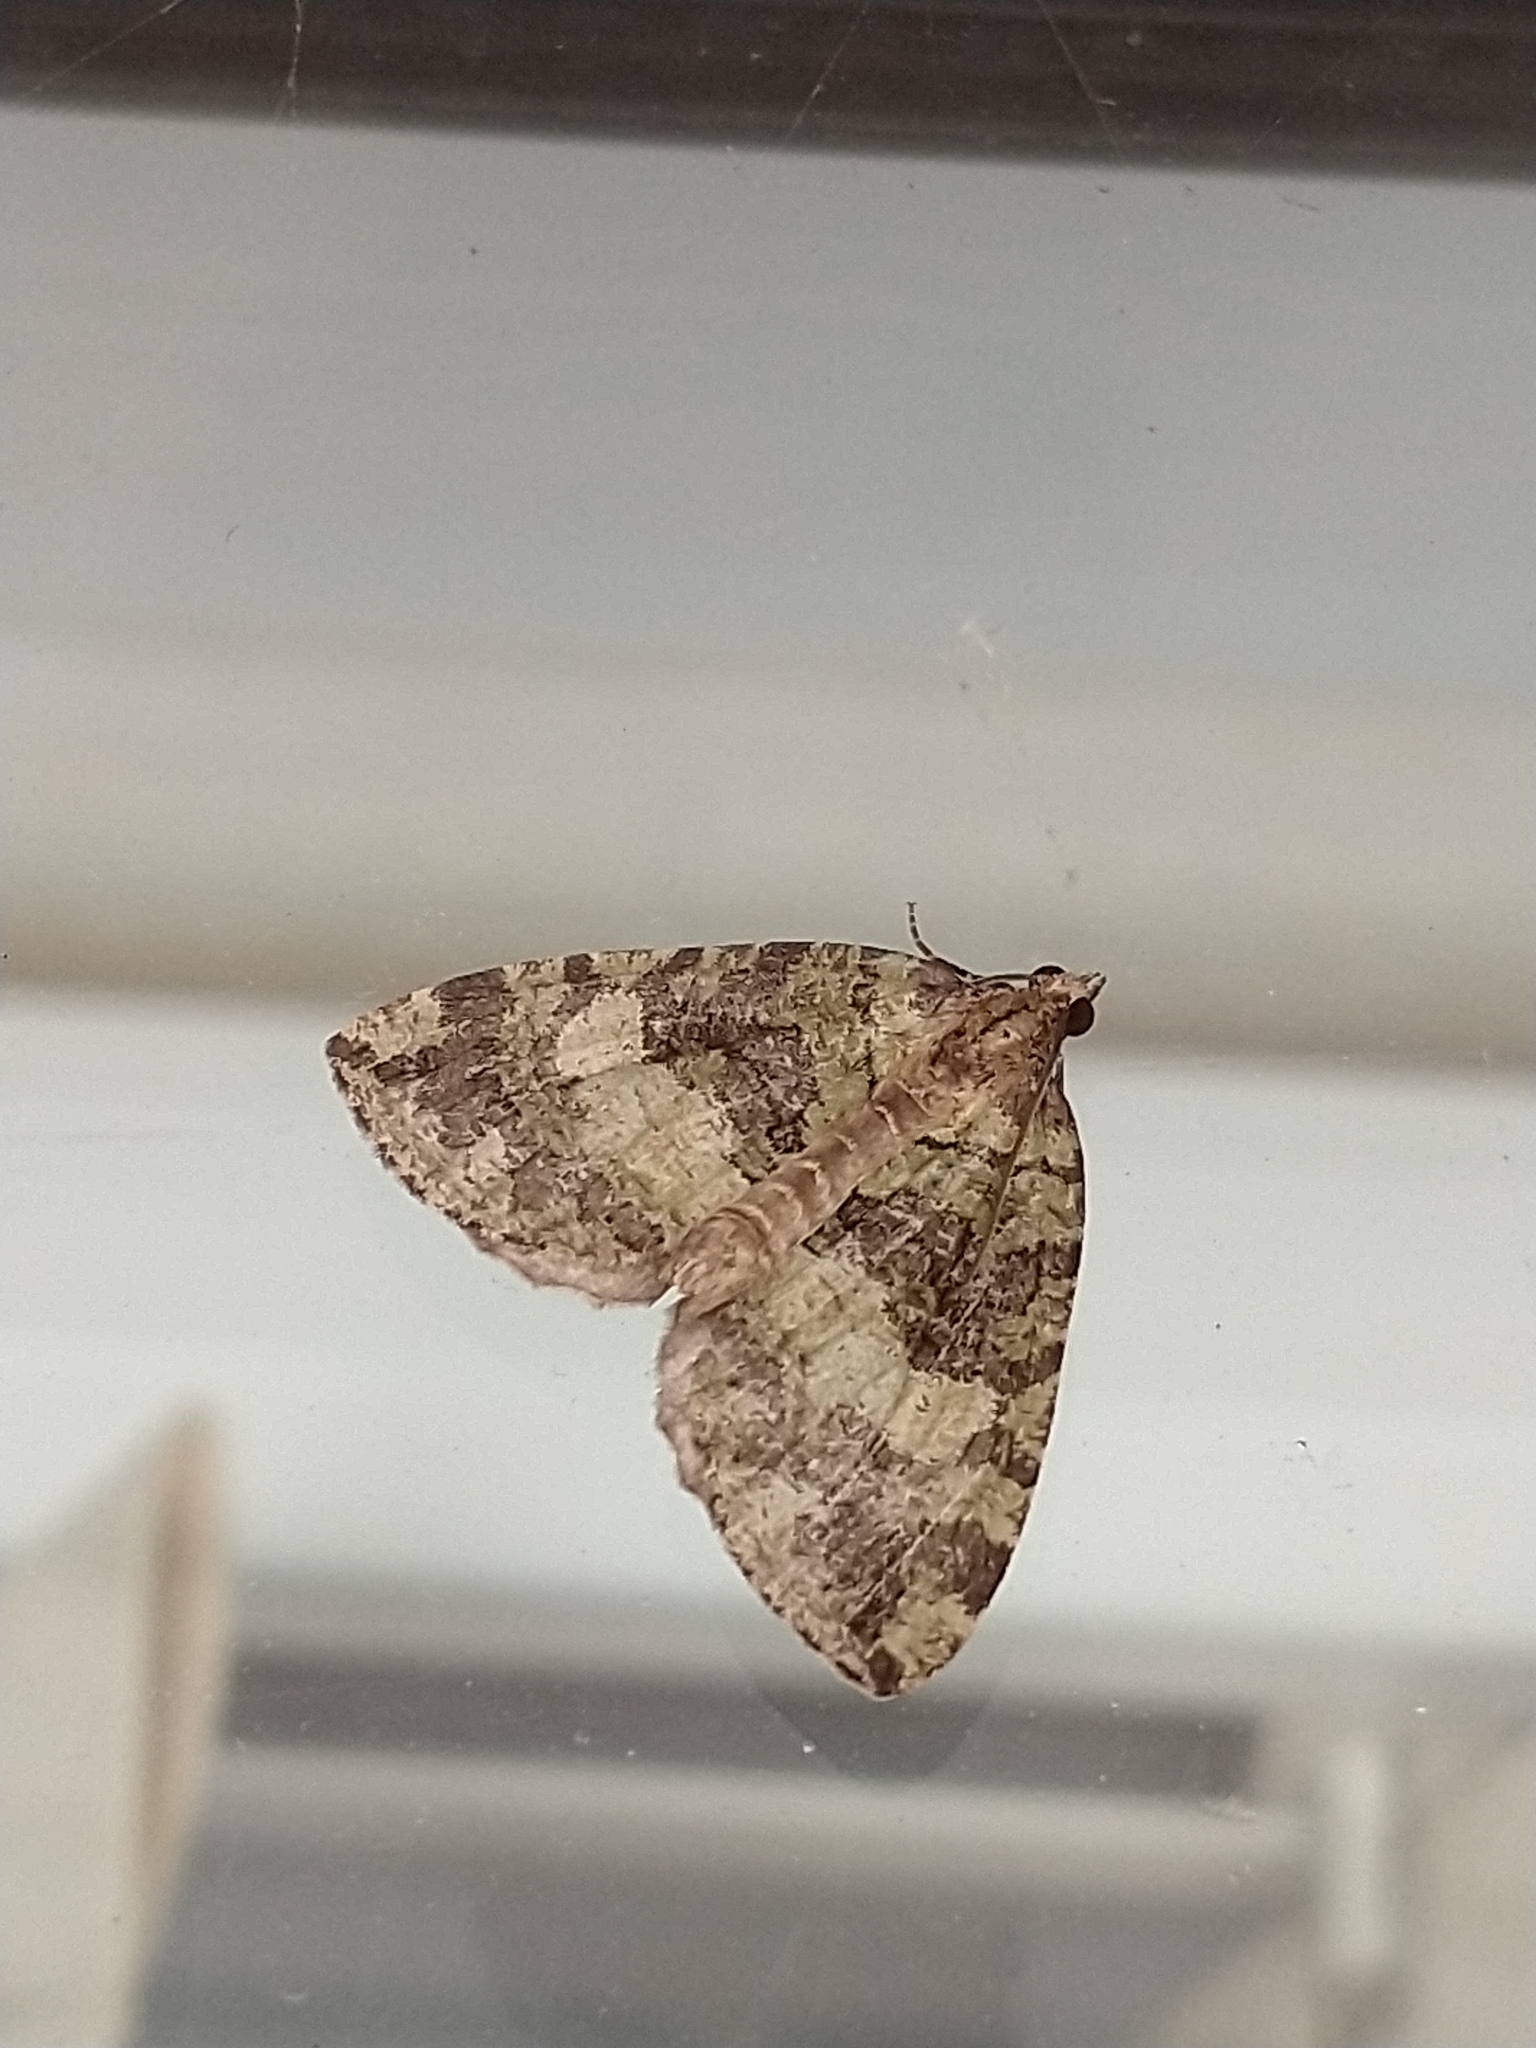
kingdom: Animalia
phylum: Arthropoda
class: Insecta
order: Lepidoptera
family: Geometridae
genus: Hydriomena
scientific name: Hydriomena furcata
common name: July highflyer
